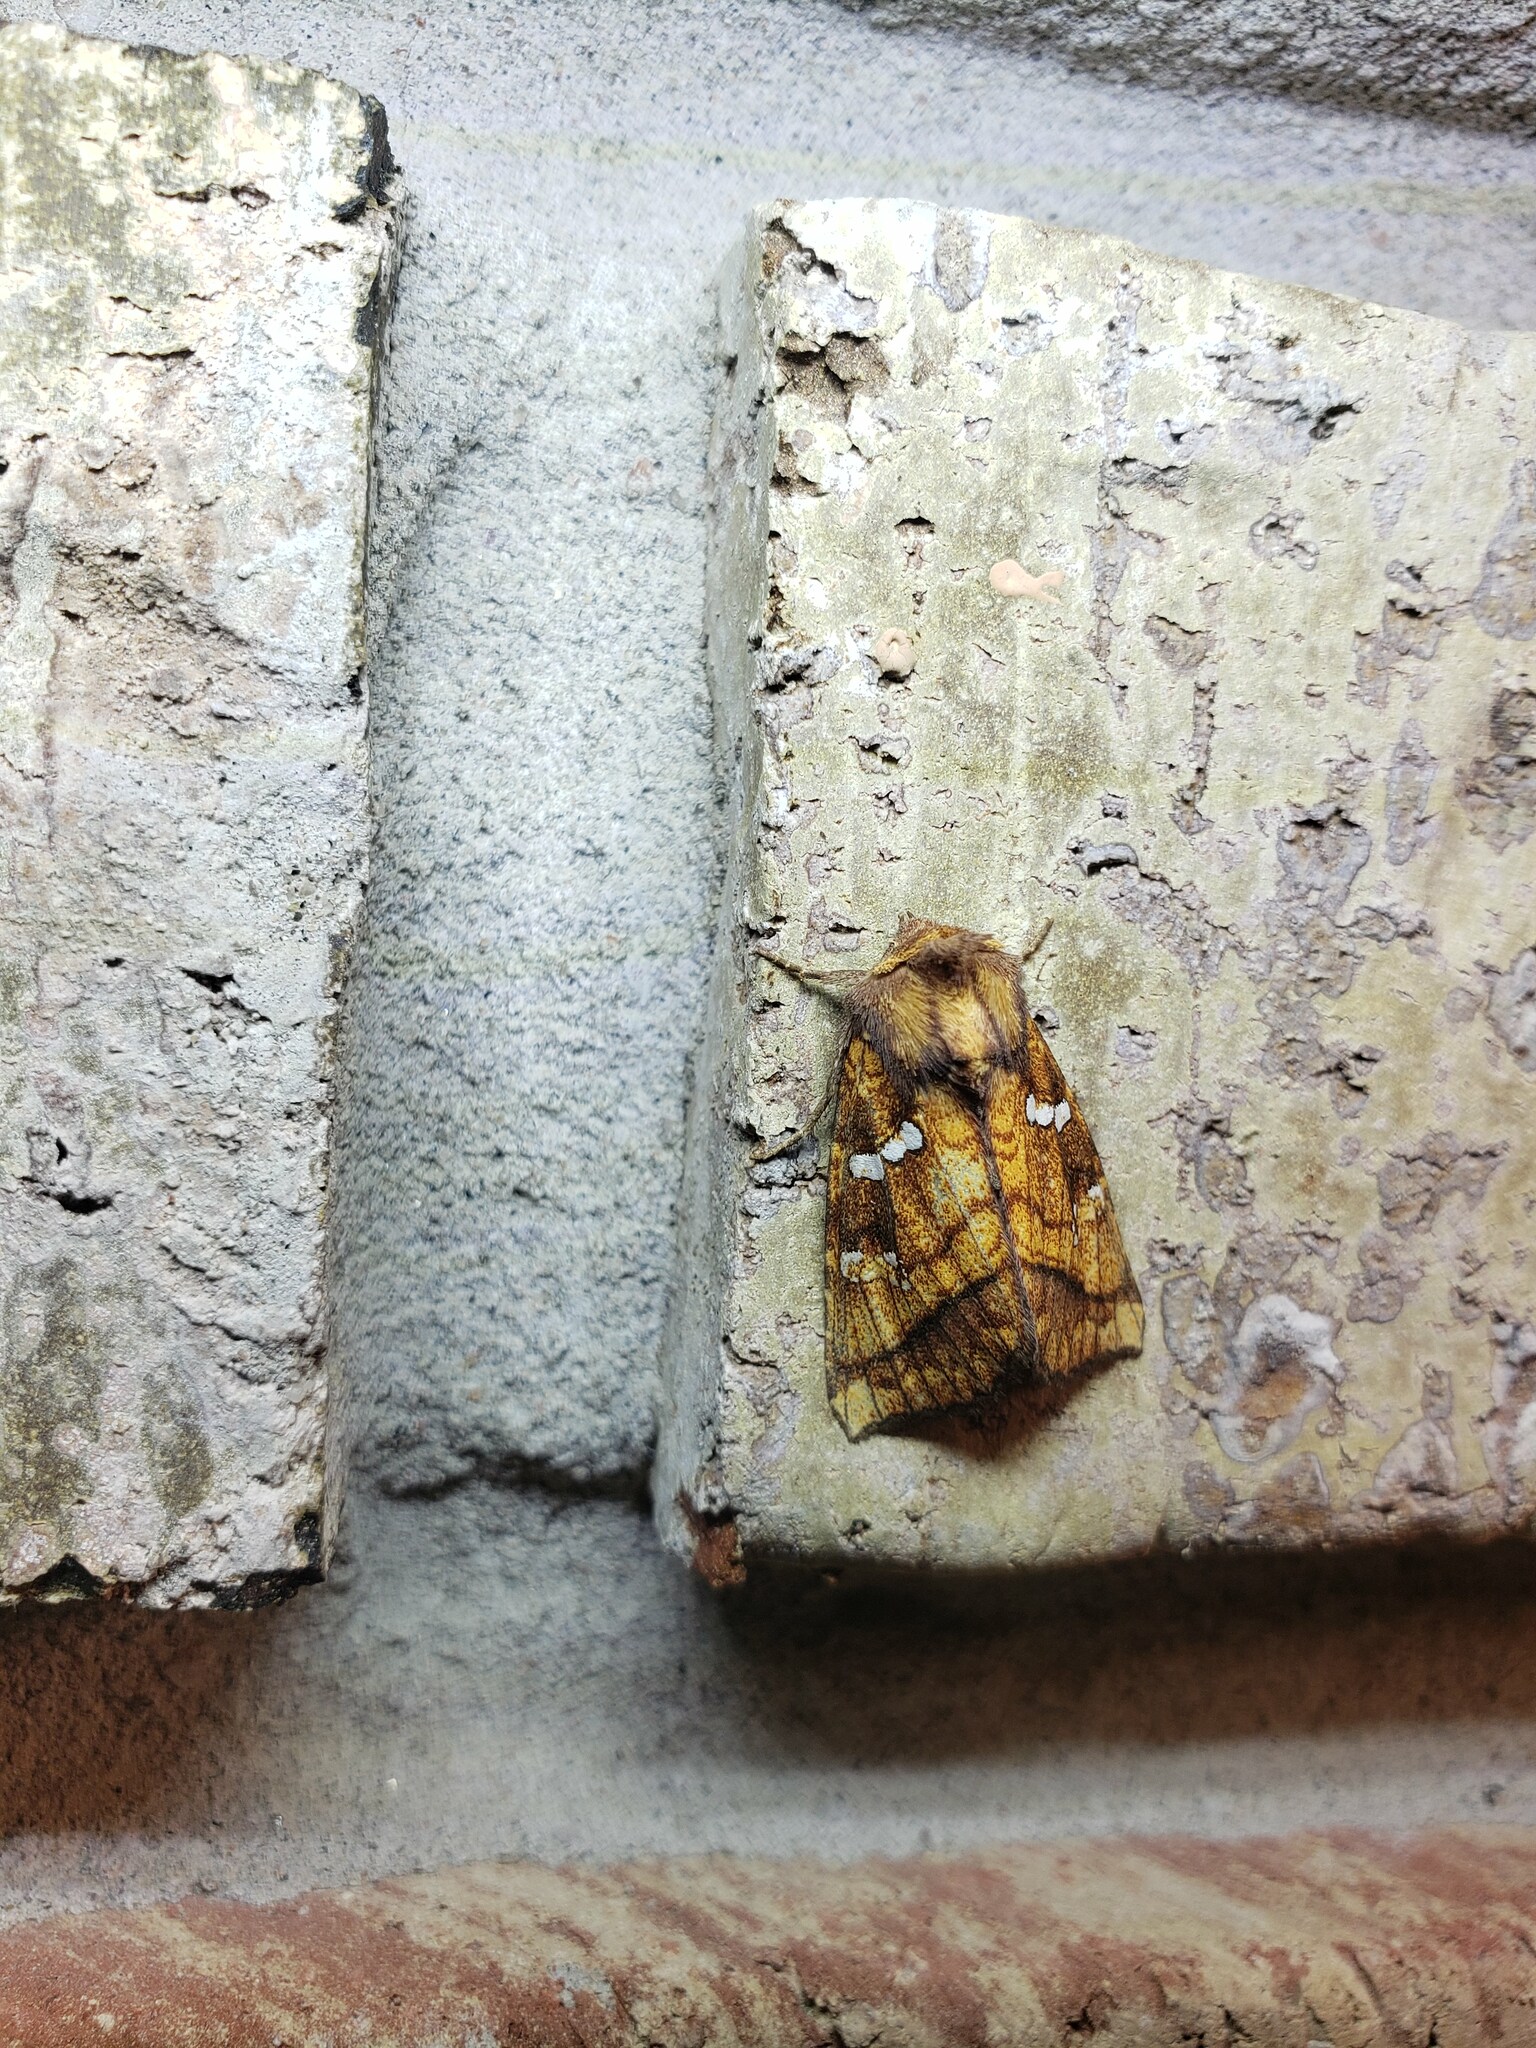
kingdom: Animalia
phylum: Arthropoda
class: Insecta
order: Lepidoptera
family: Noctuidae
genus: Papaipema
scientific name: Papaipema pterisii
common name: Bracken borer moth
